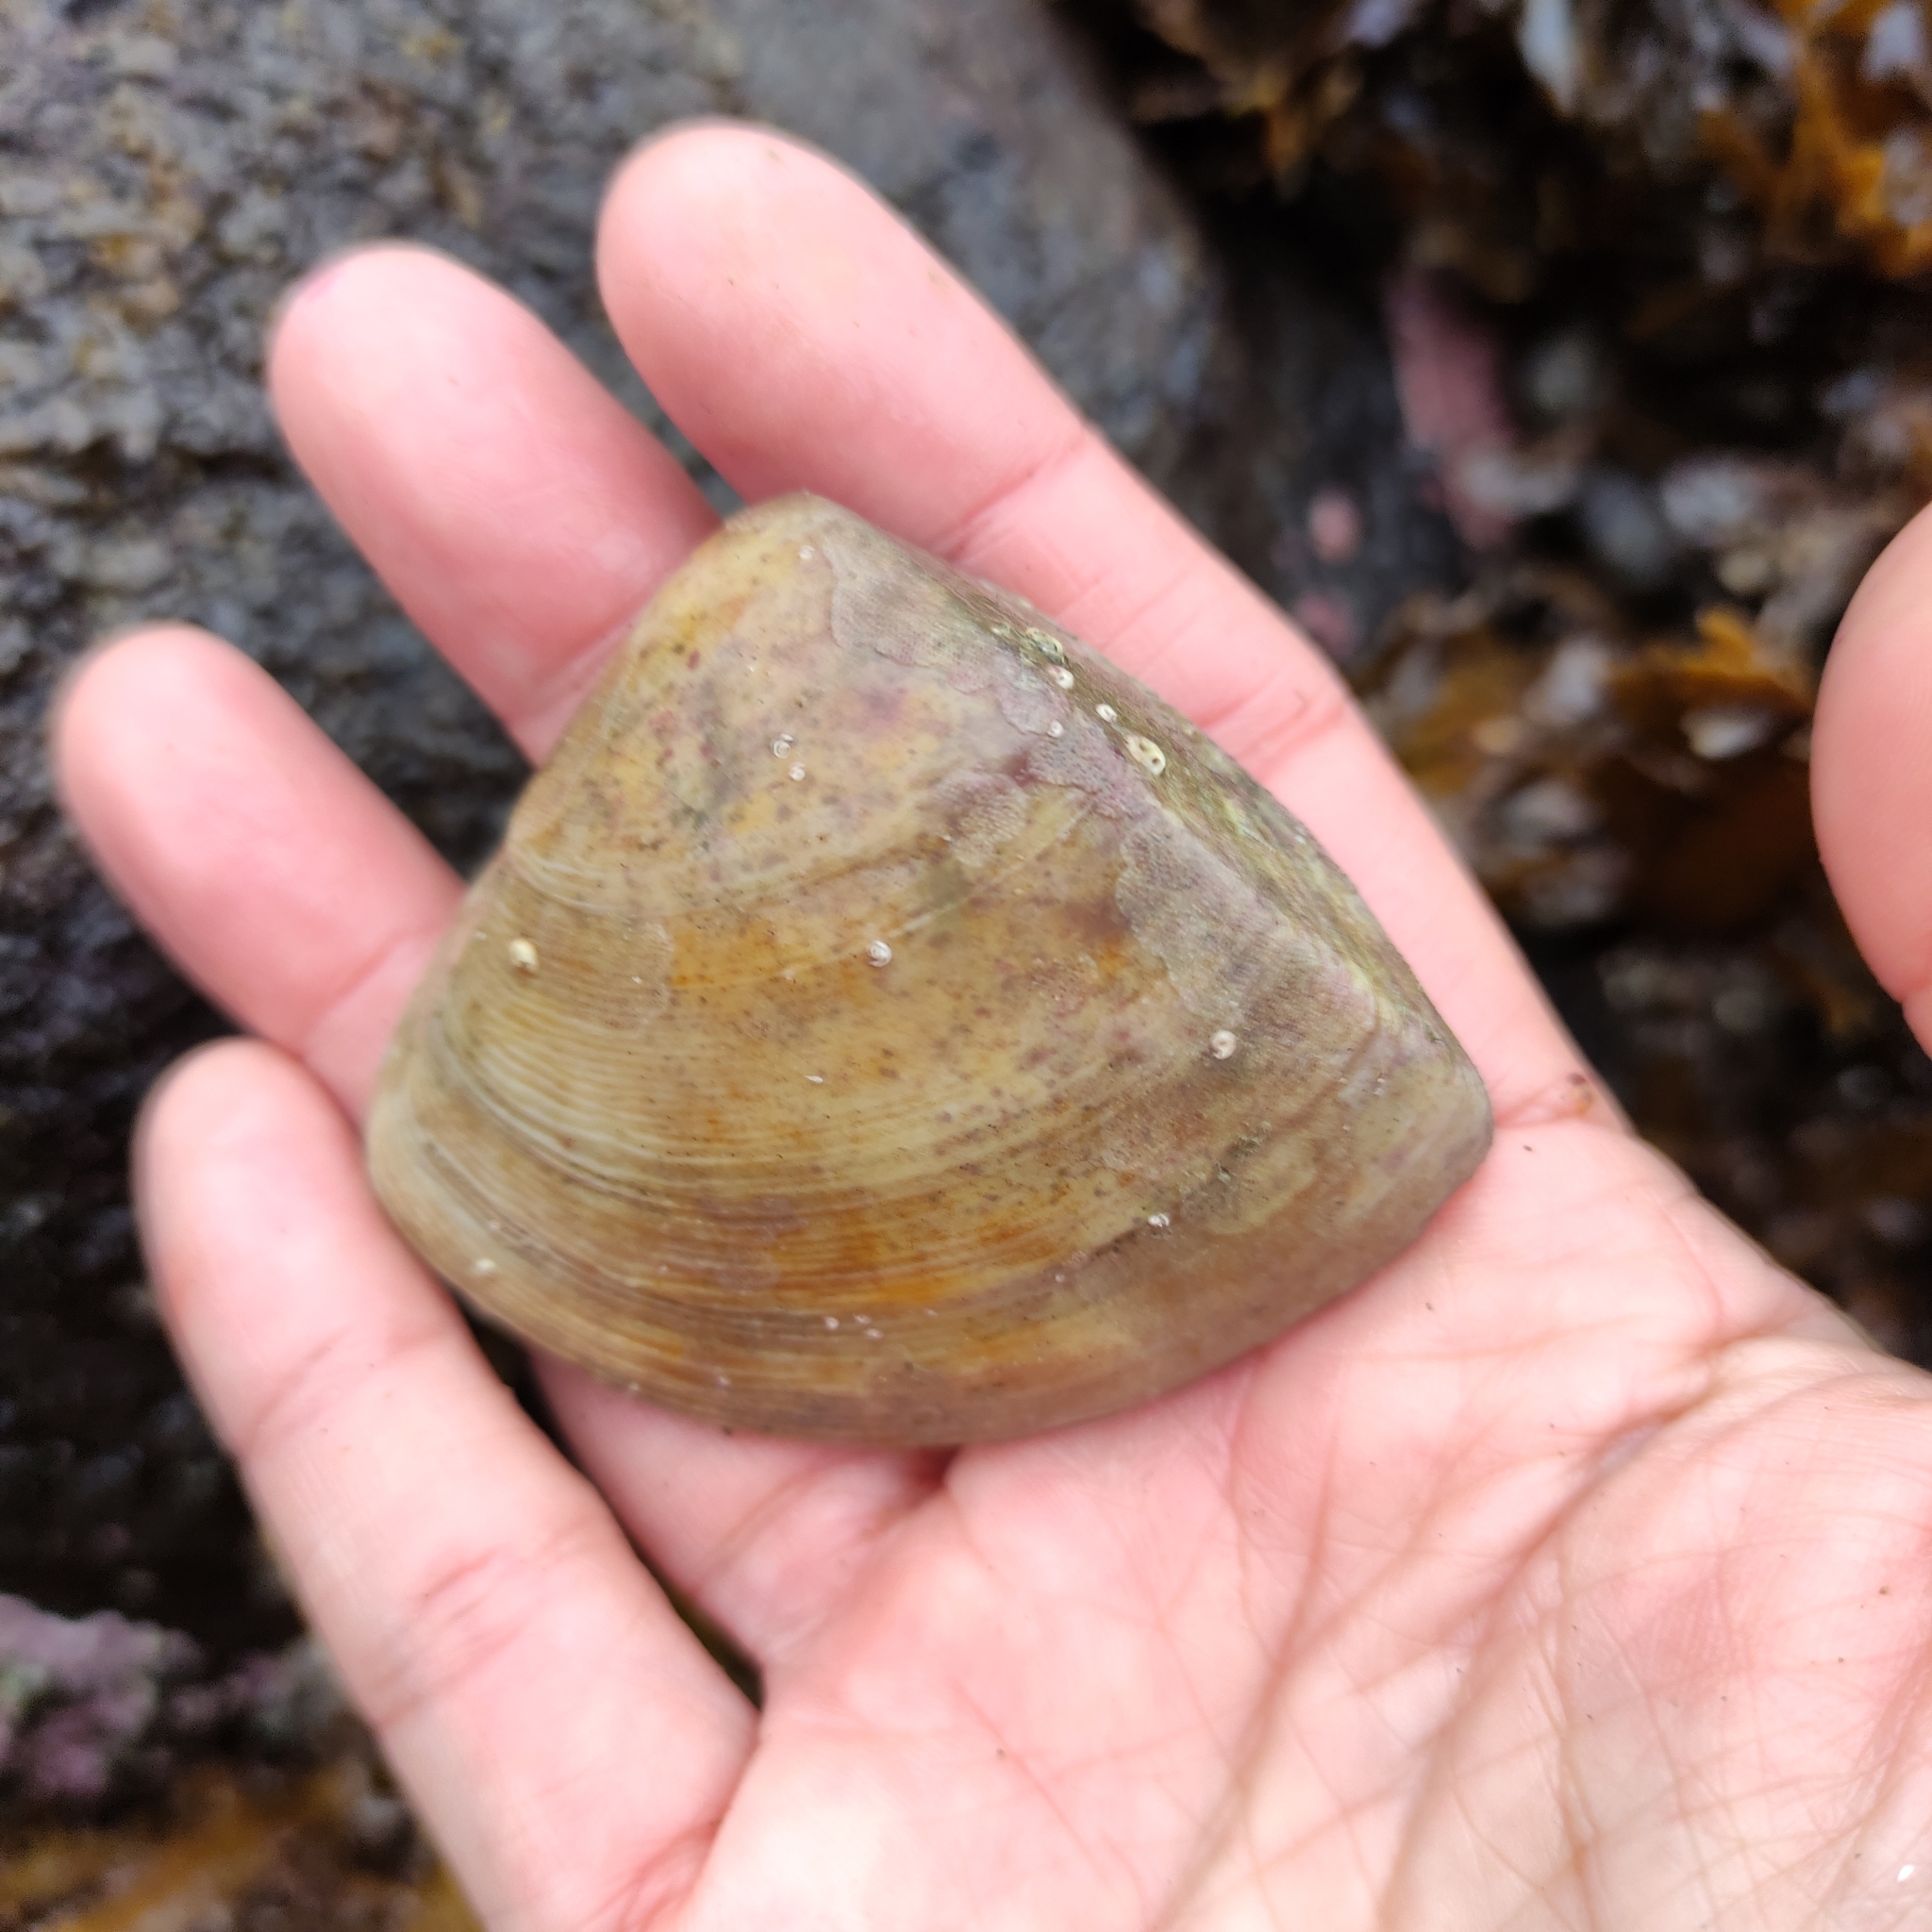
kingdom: Animalia
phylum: Mollusca
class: Bivalvia
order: Venerida
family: Mactridae
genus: Crassula
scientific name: Crassula aequilatera
